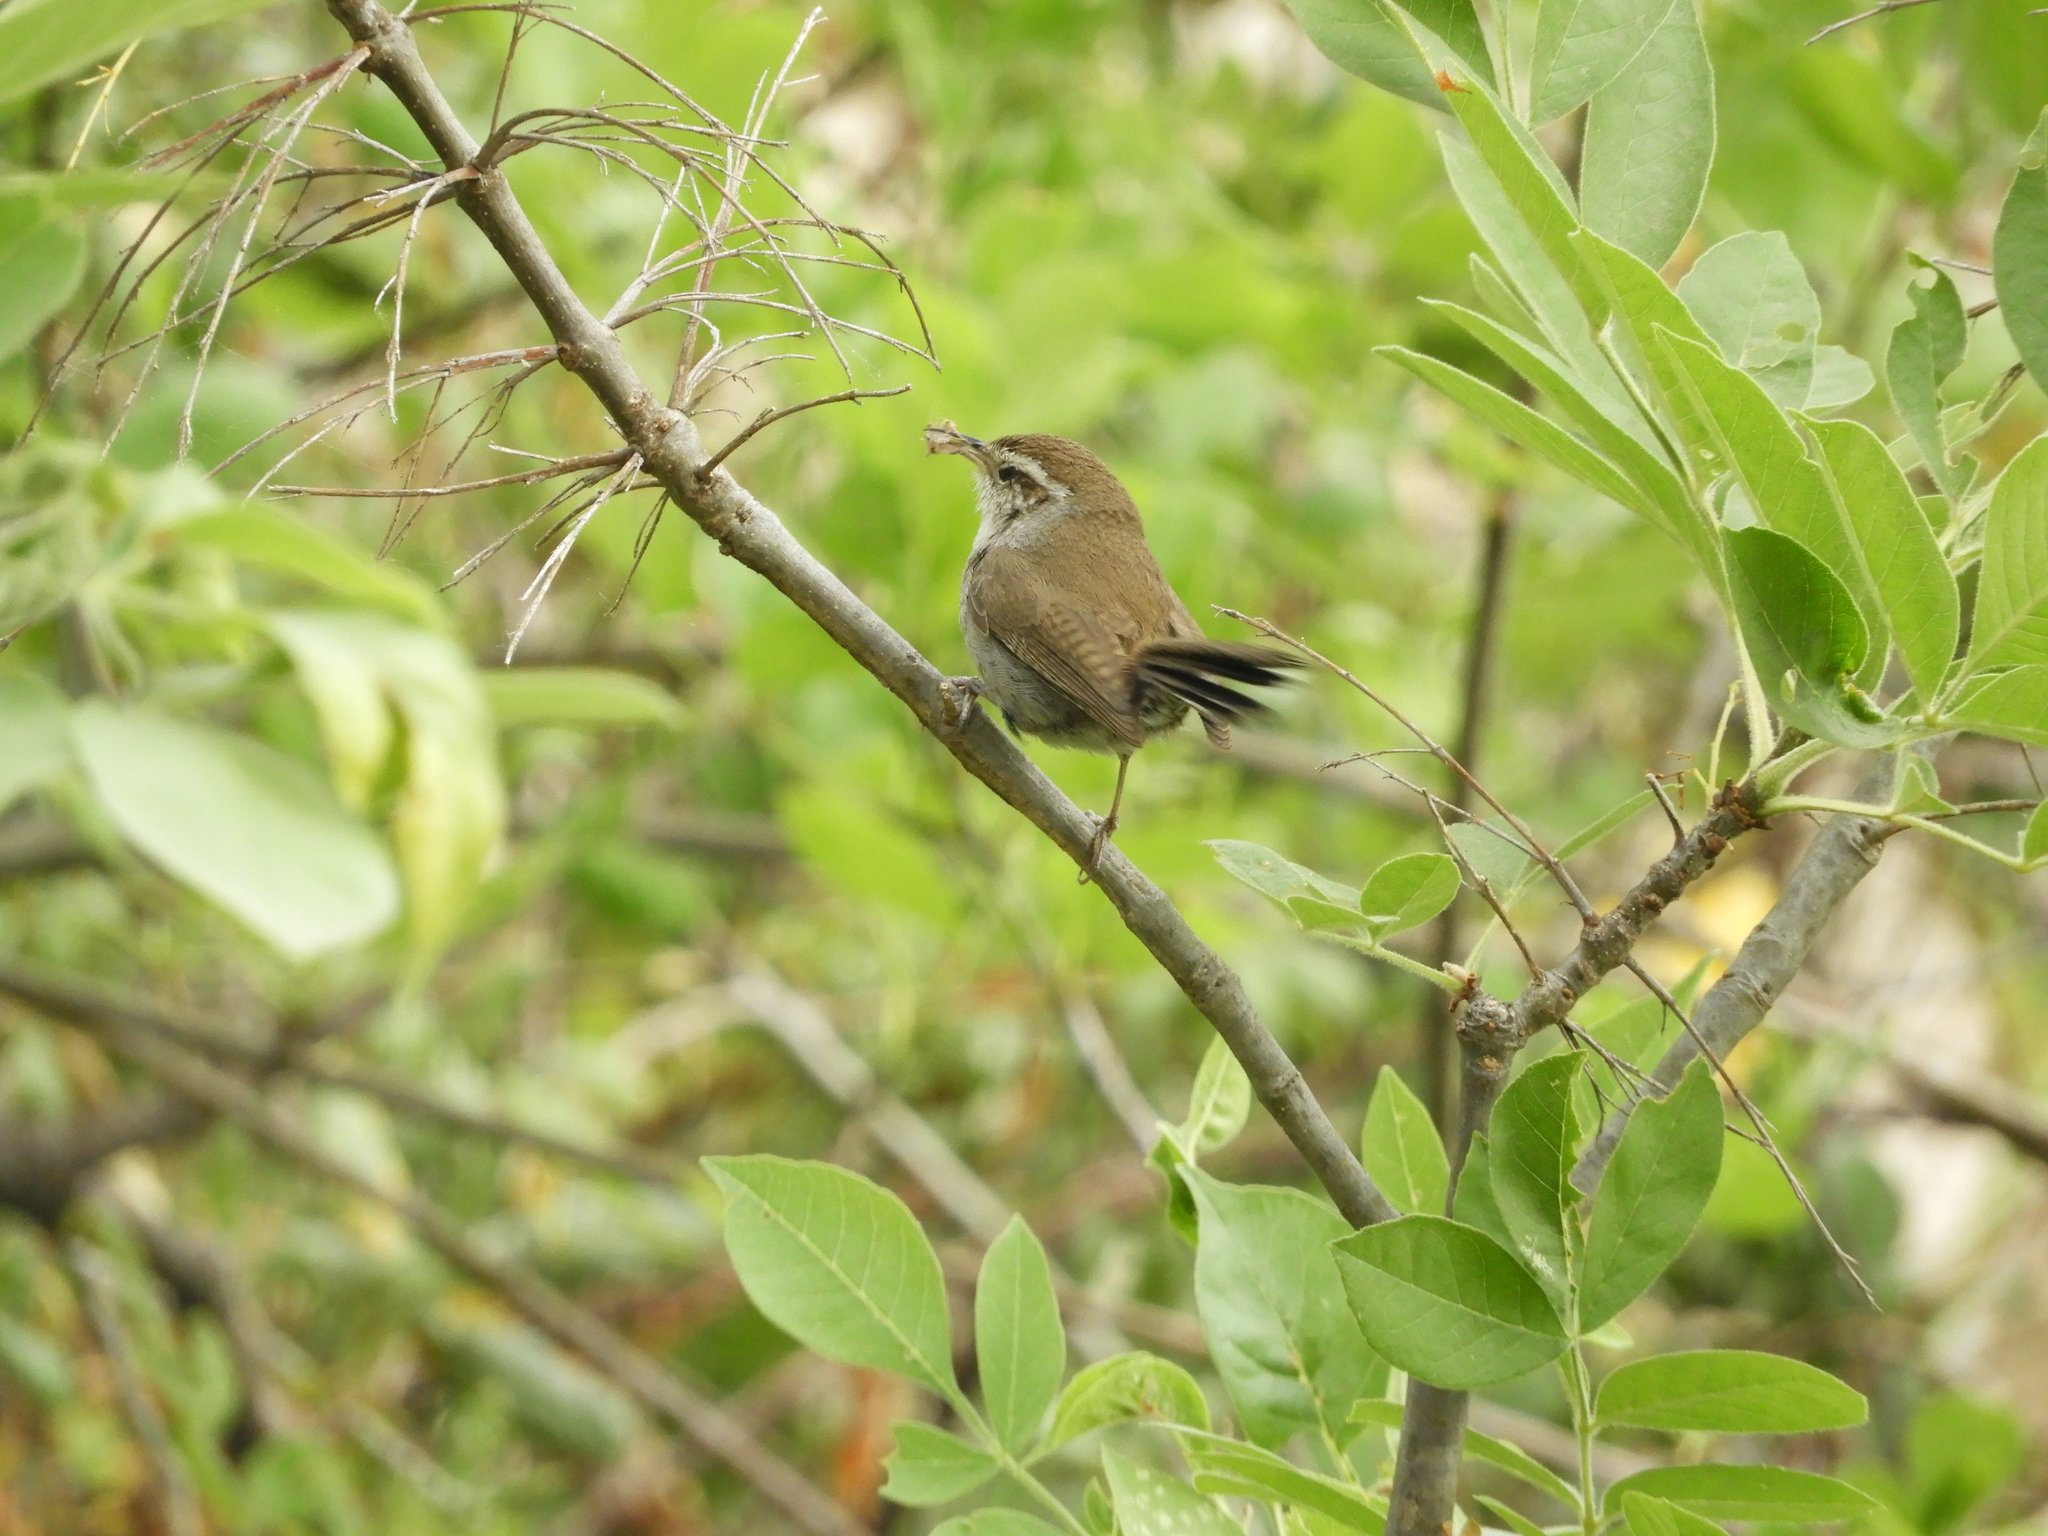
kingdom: Animalia
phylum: Chordata
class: Aves
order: Passeriformes
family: Troglodytidae
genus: Thryomanes
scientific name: Thryomanes bewickii
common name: Bewick's wren
